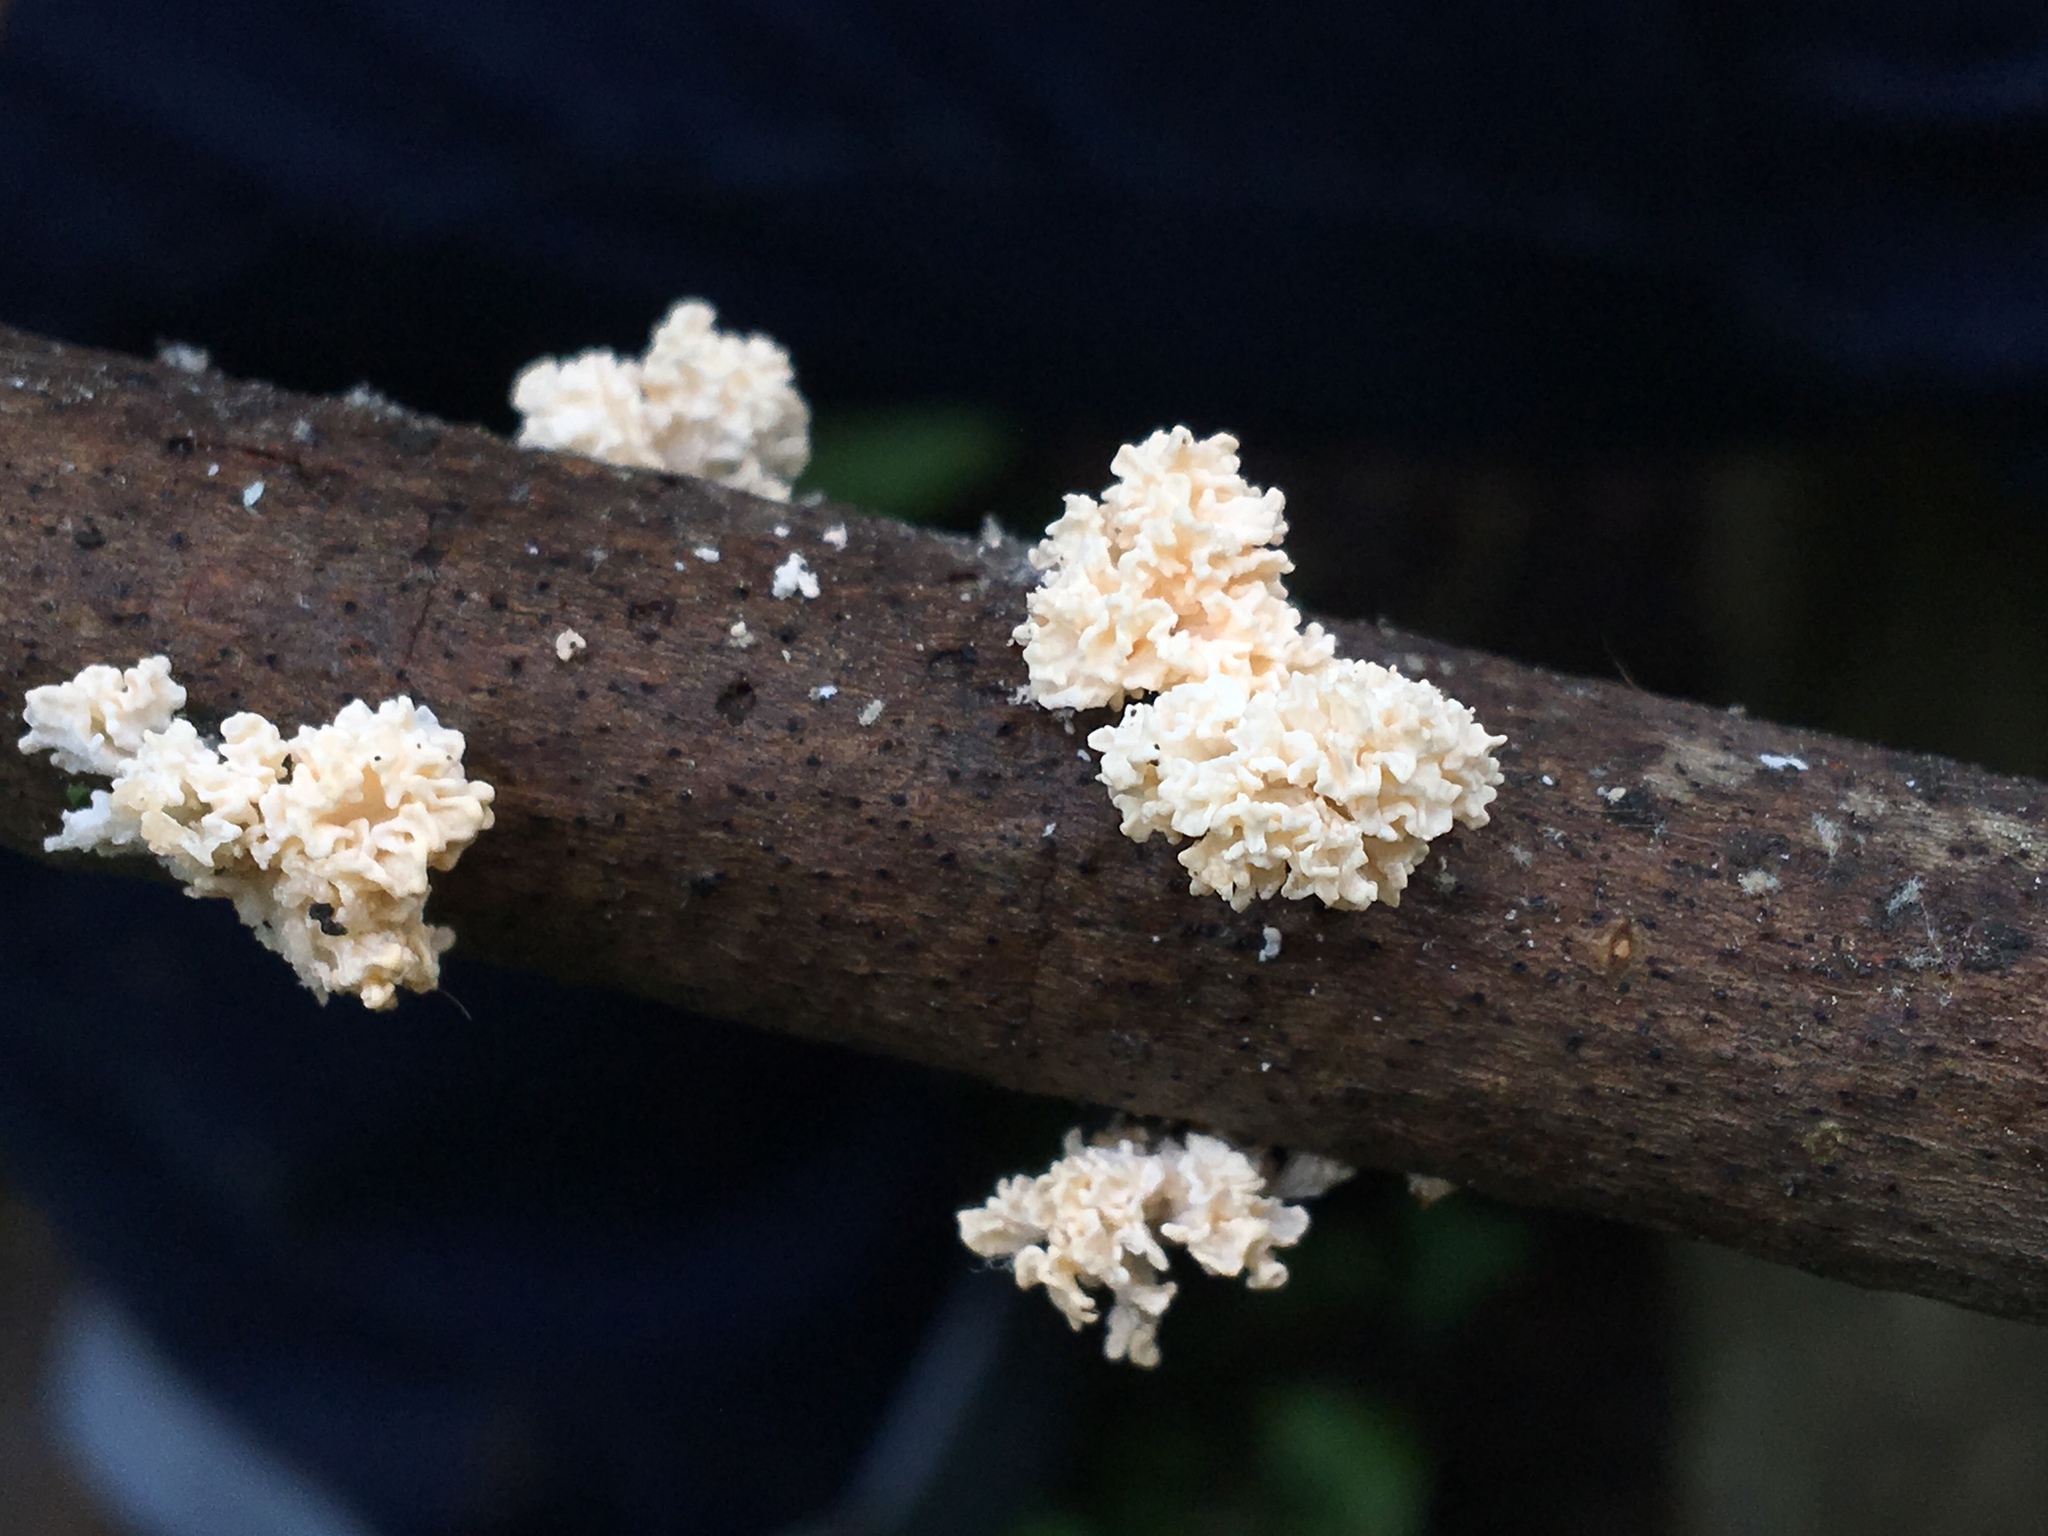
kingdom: Fungi
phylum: Ascomycota
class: Sordariomycetes
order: Xylariales
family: Xylariaceae
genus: Xylaria
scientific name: Xylaria cubensis
